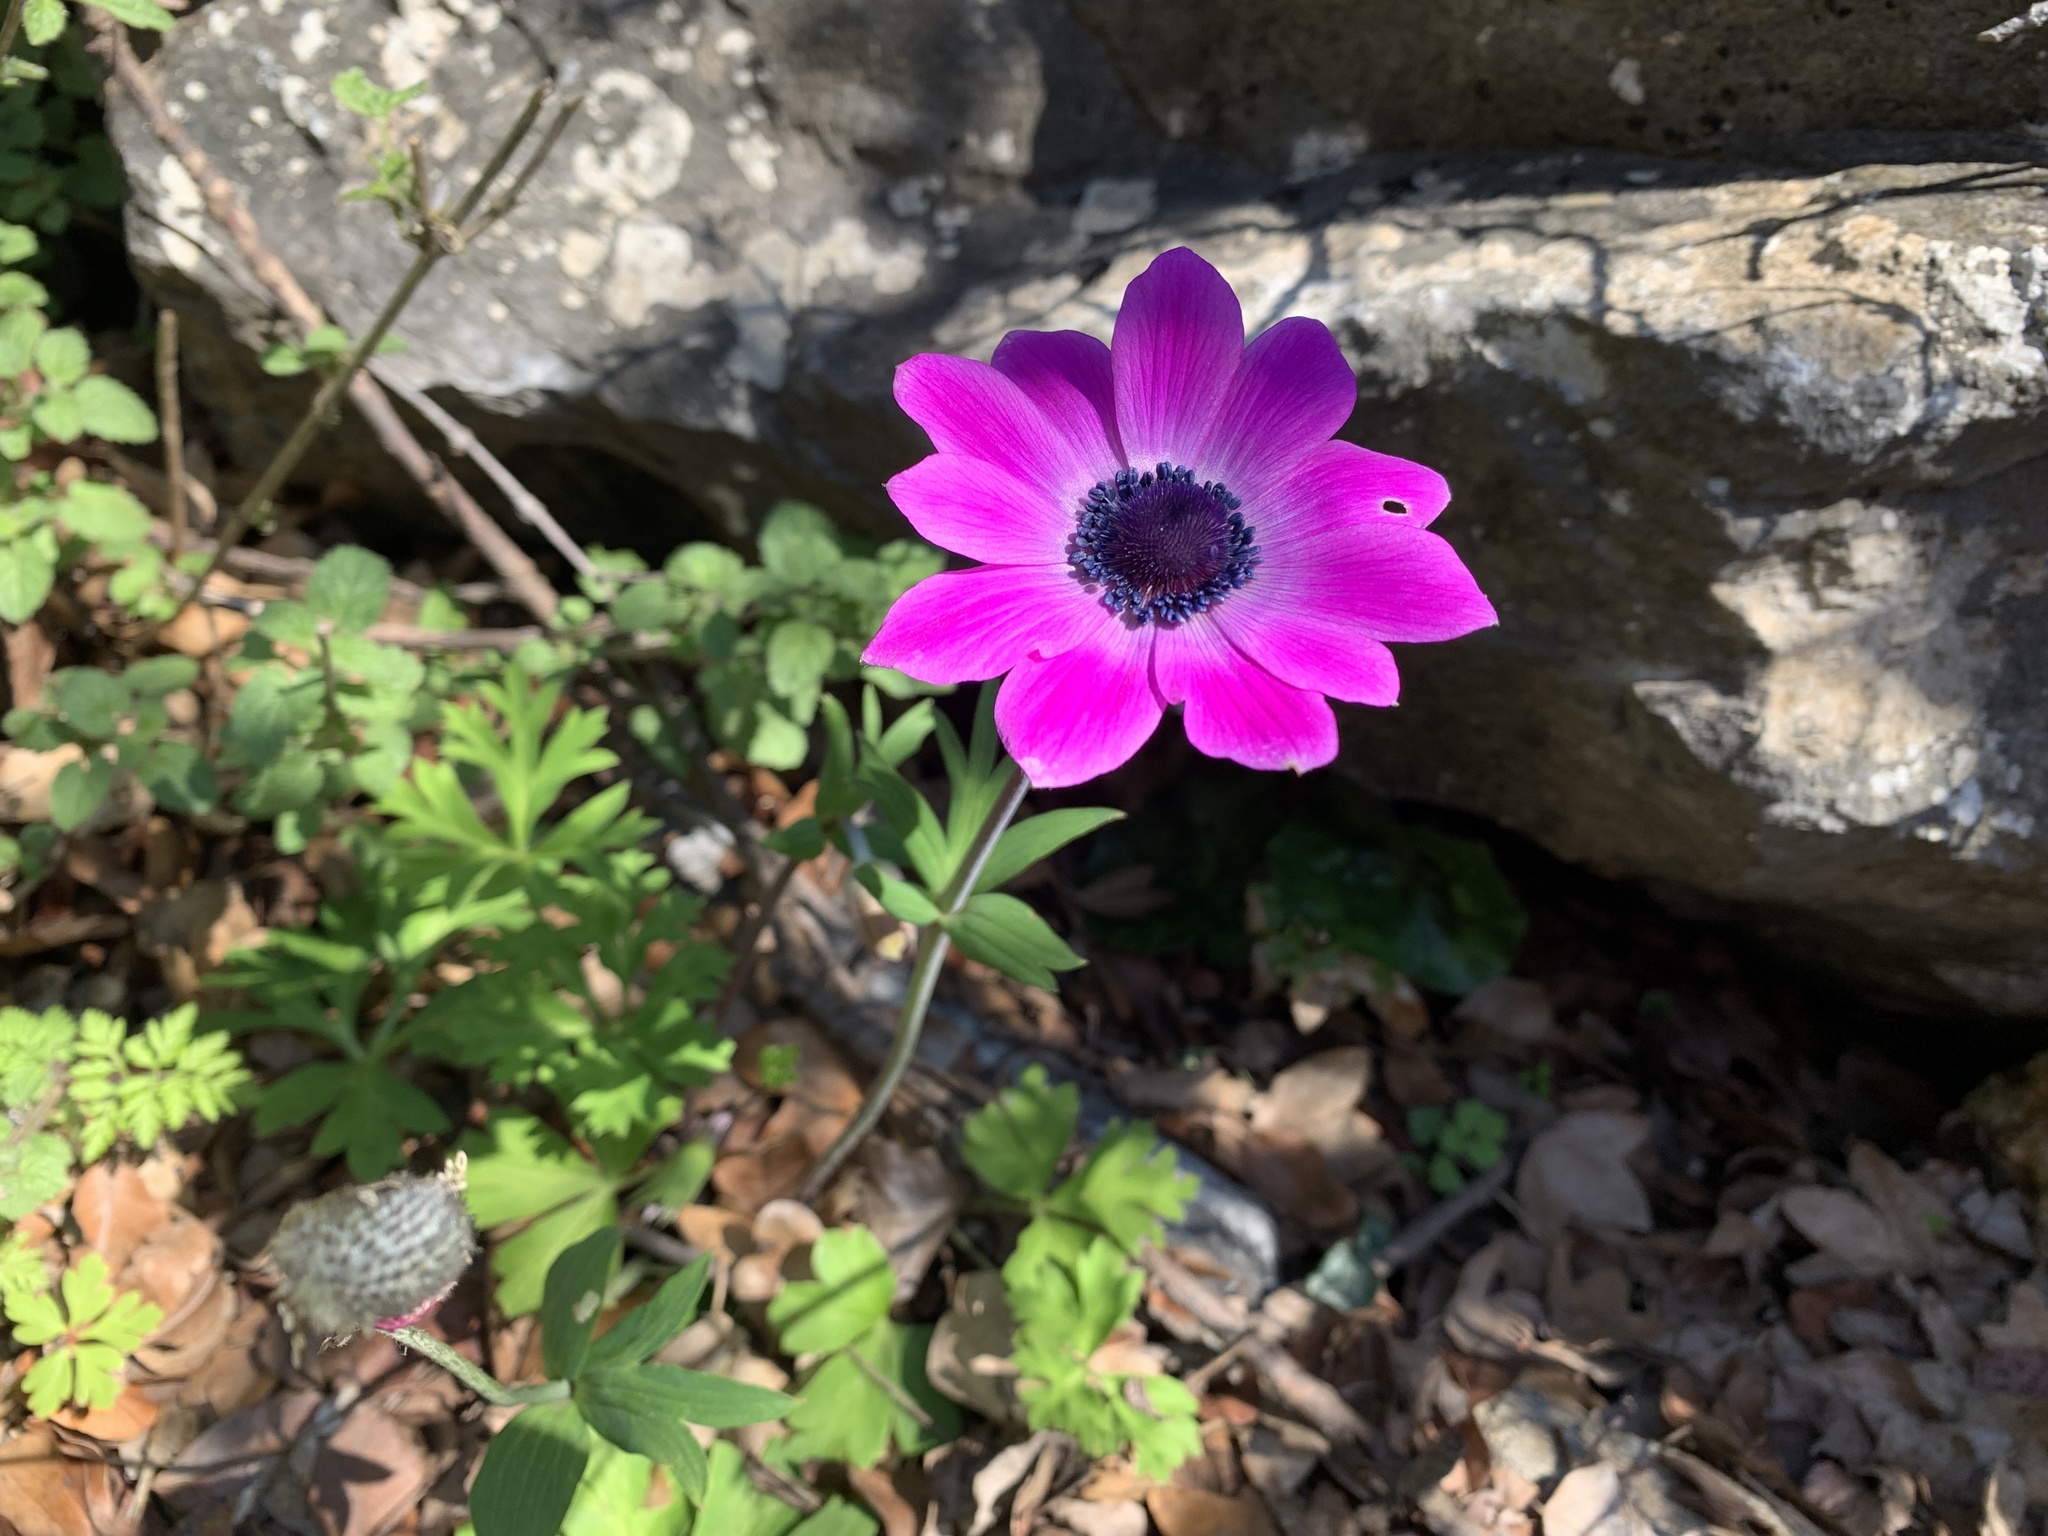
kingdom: Plantae
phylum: Tracheophyta
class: Magnoliopsida
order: Ranunculales
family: Ranunculaceae
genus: Anemone
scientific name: Anemone pavonina
